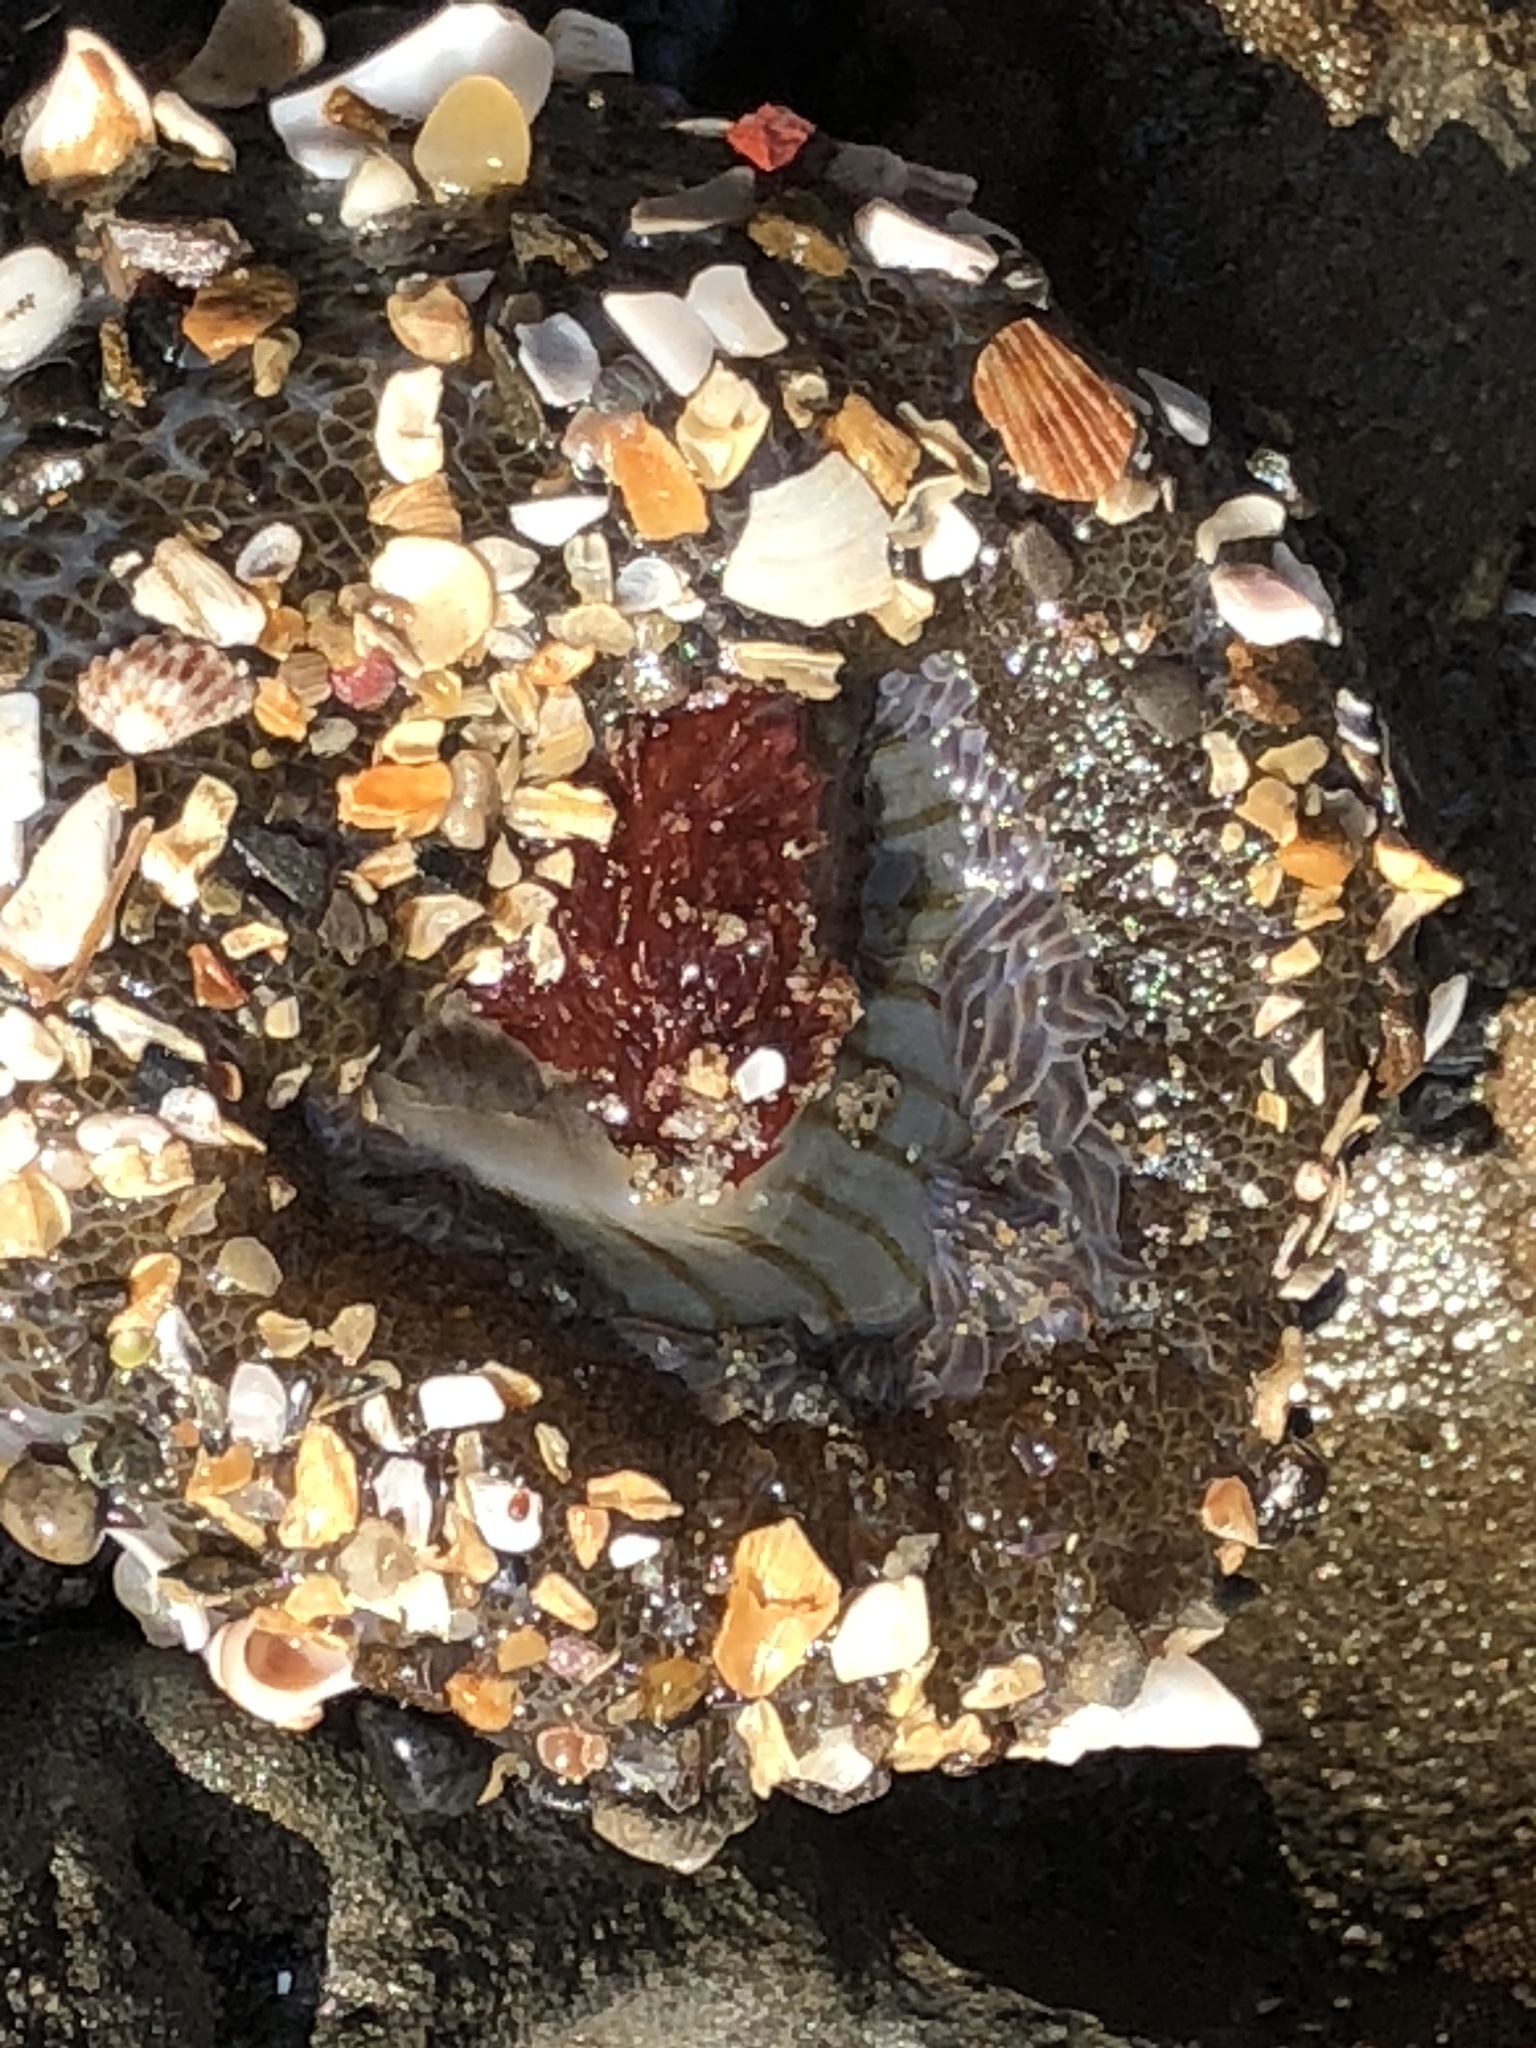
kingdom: Animalia
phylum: Cnidaria
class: Anthozoa
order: Actiniaria
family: Actiniidae
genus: Anthopleura
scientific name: Anthopleura sola
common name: Sun anemone
